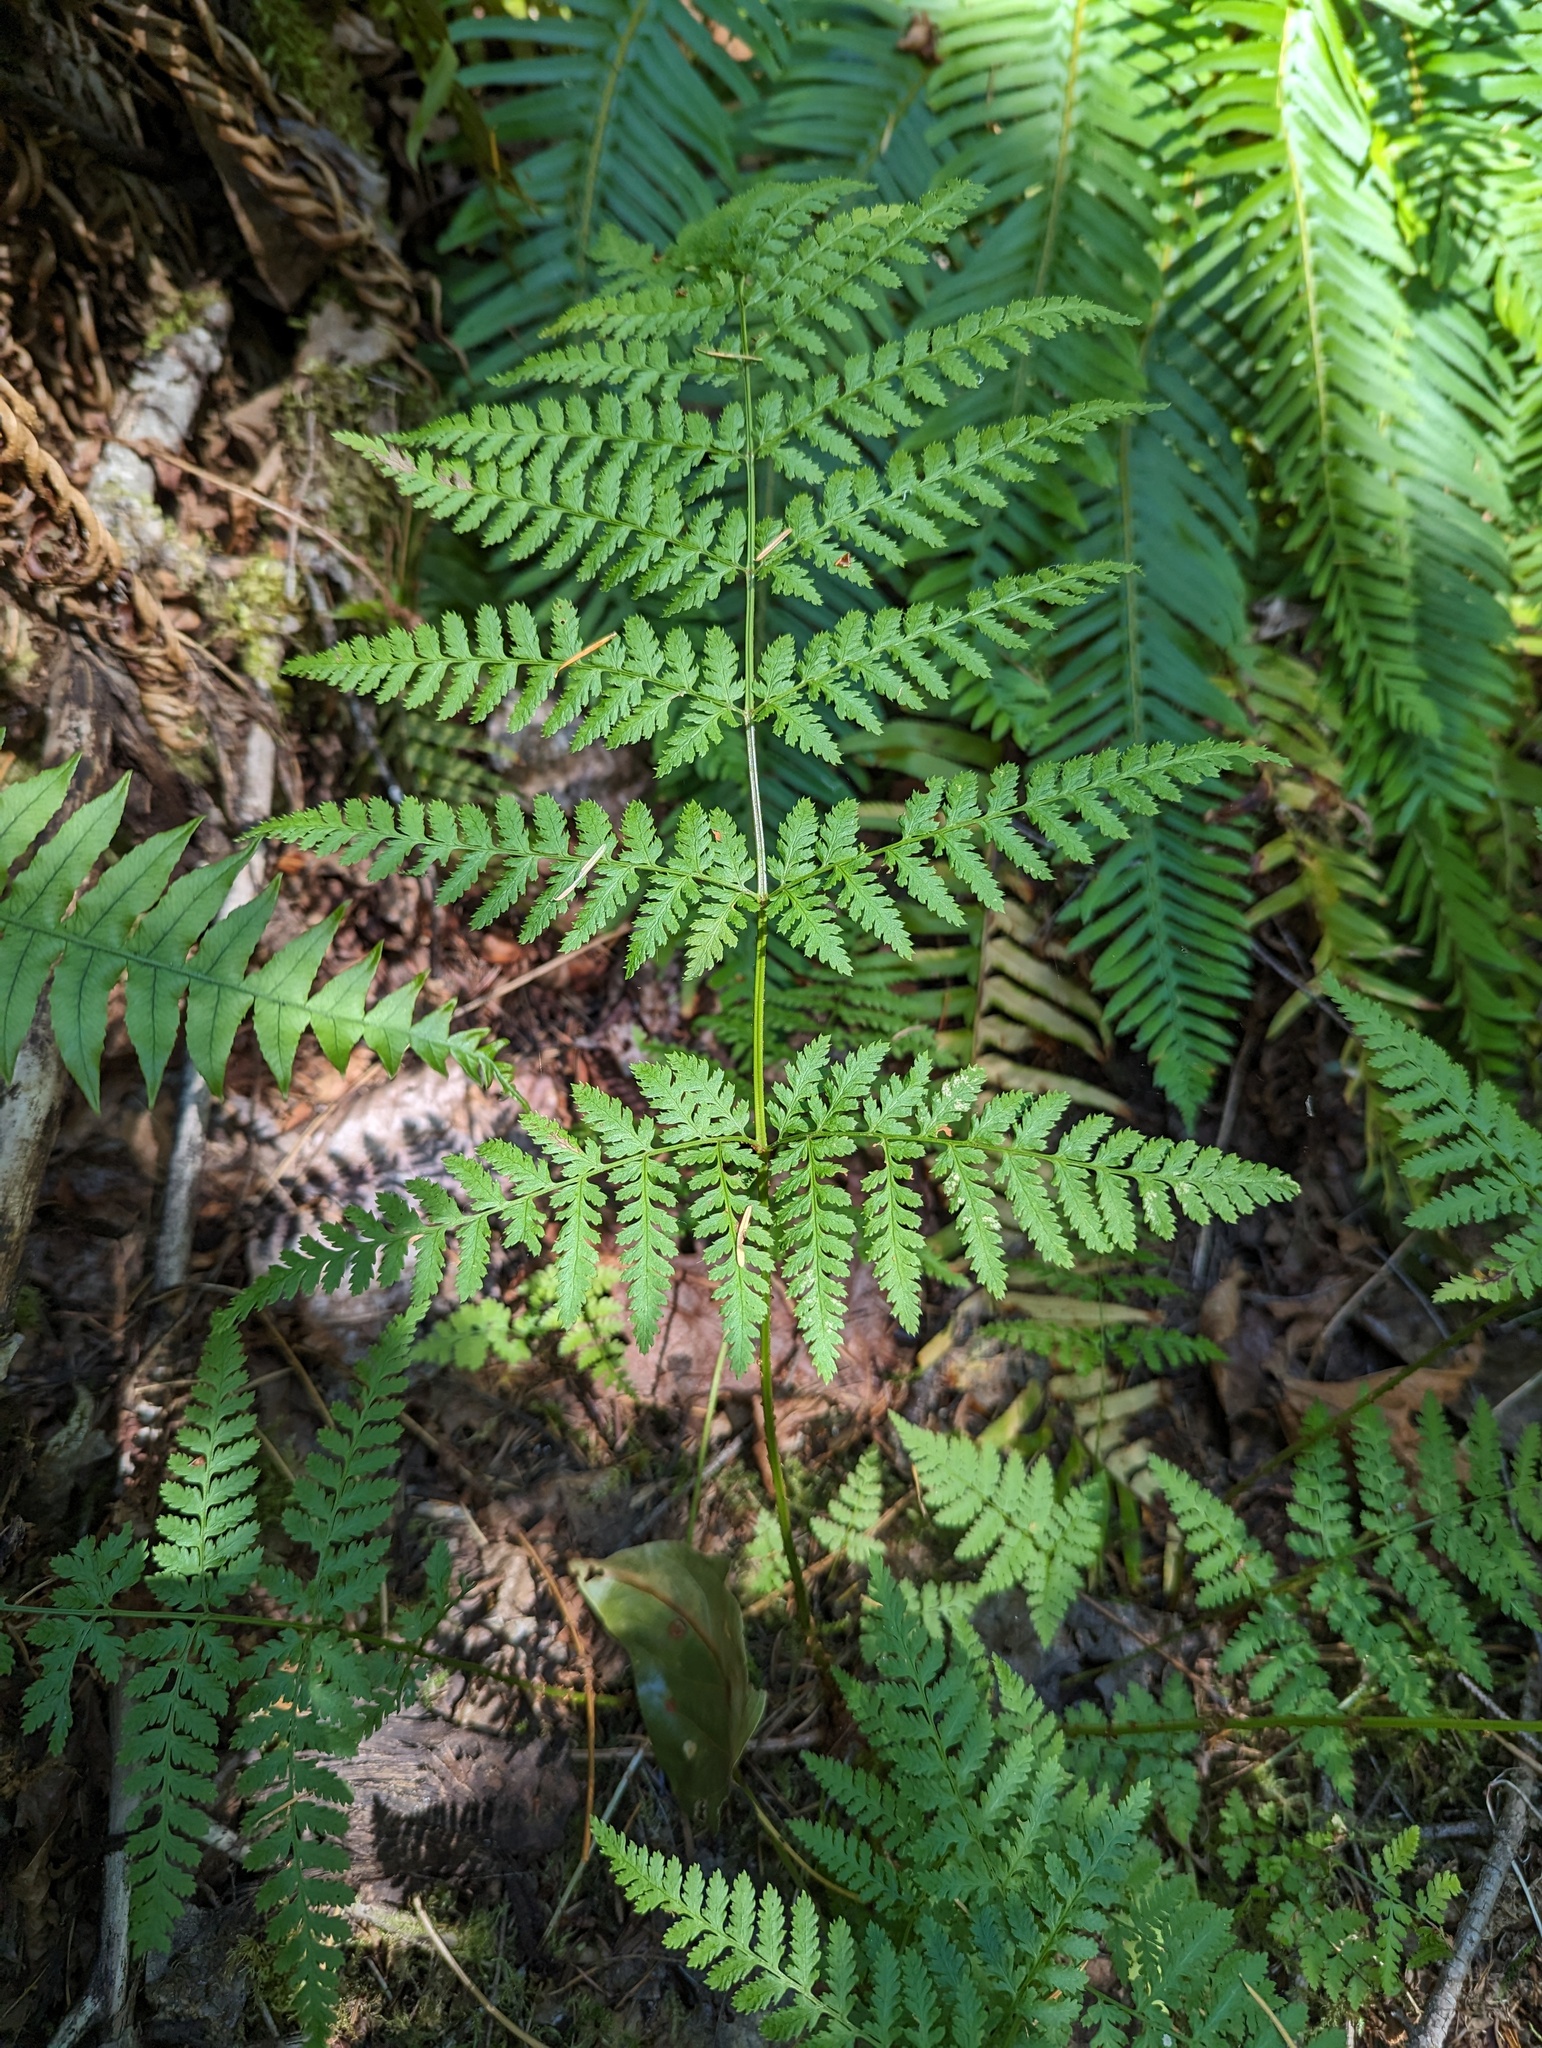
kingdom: Plantae
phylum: Tracheophyta
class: Polypodiopsida
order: Polypodiales
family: Dryopteridaceae
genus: Dryopteris
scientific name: Dryopteris expansa
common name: Northern buckler fern
